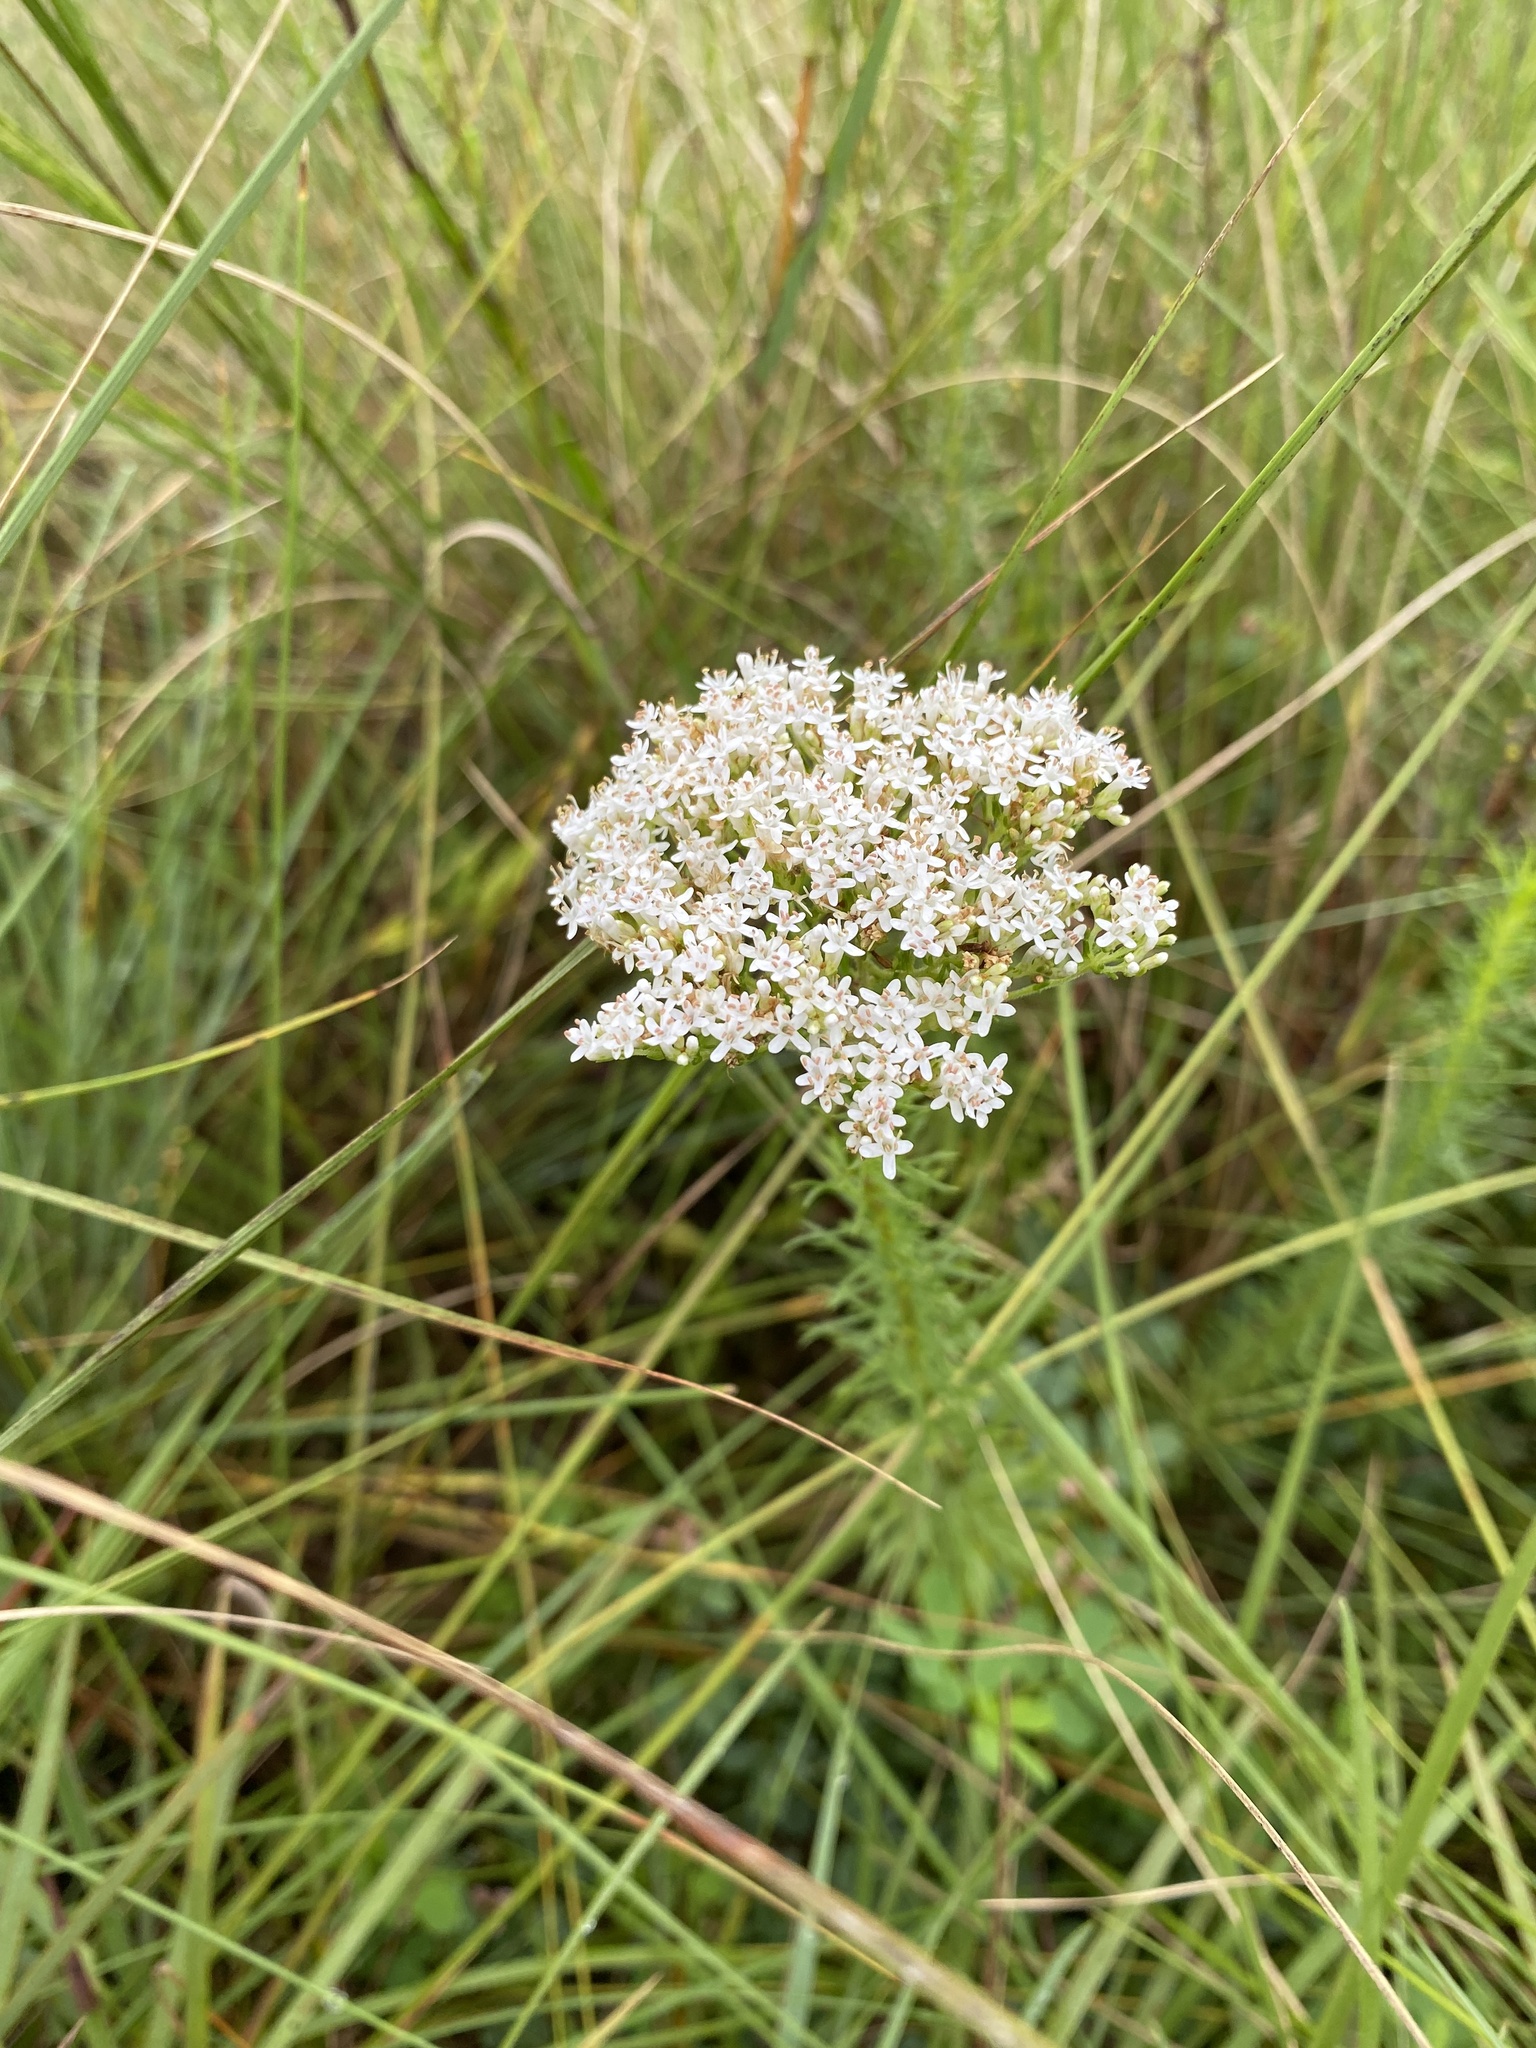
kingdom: Plantae
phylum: Tracheophyta
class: Magnoliopsida
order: Lamiales
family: Scrophulariaceae
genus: Tetraselago
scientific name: Tetraselago natalensis
